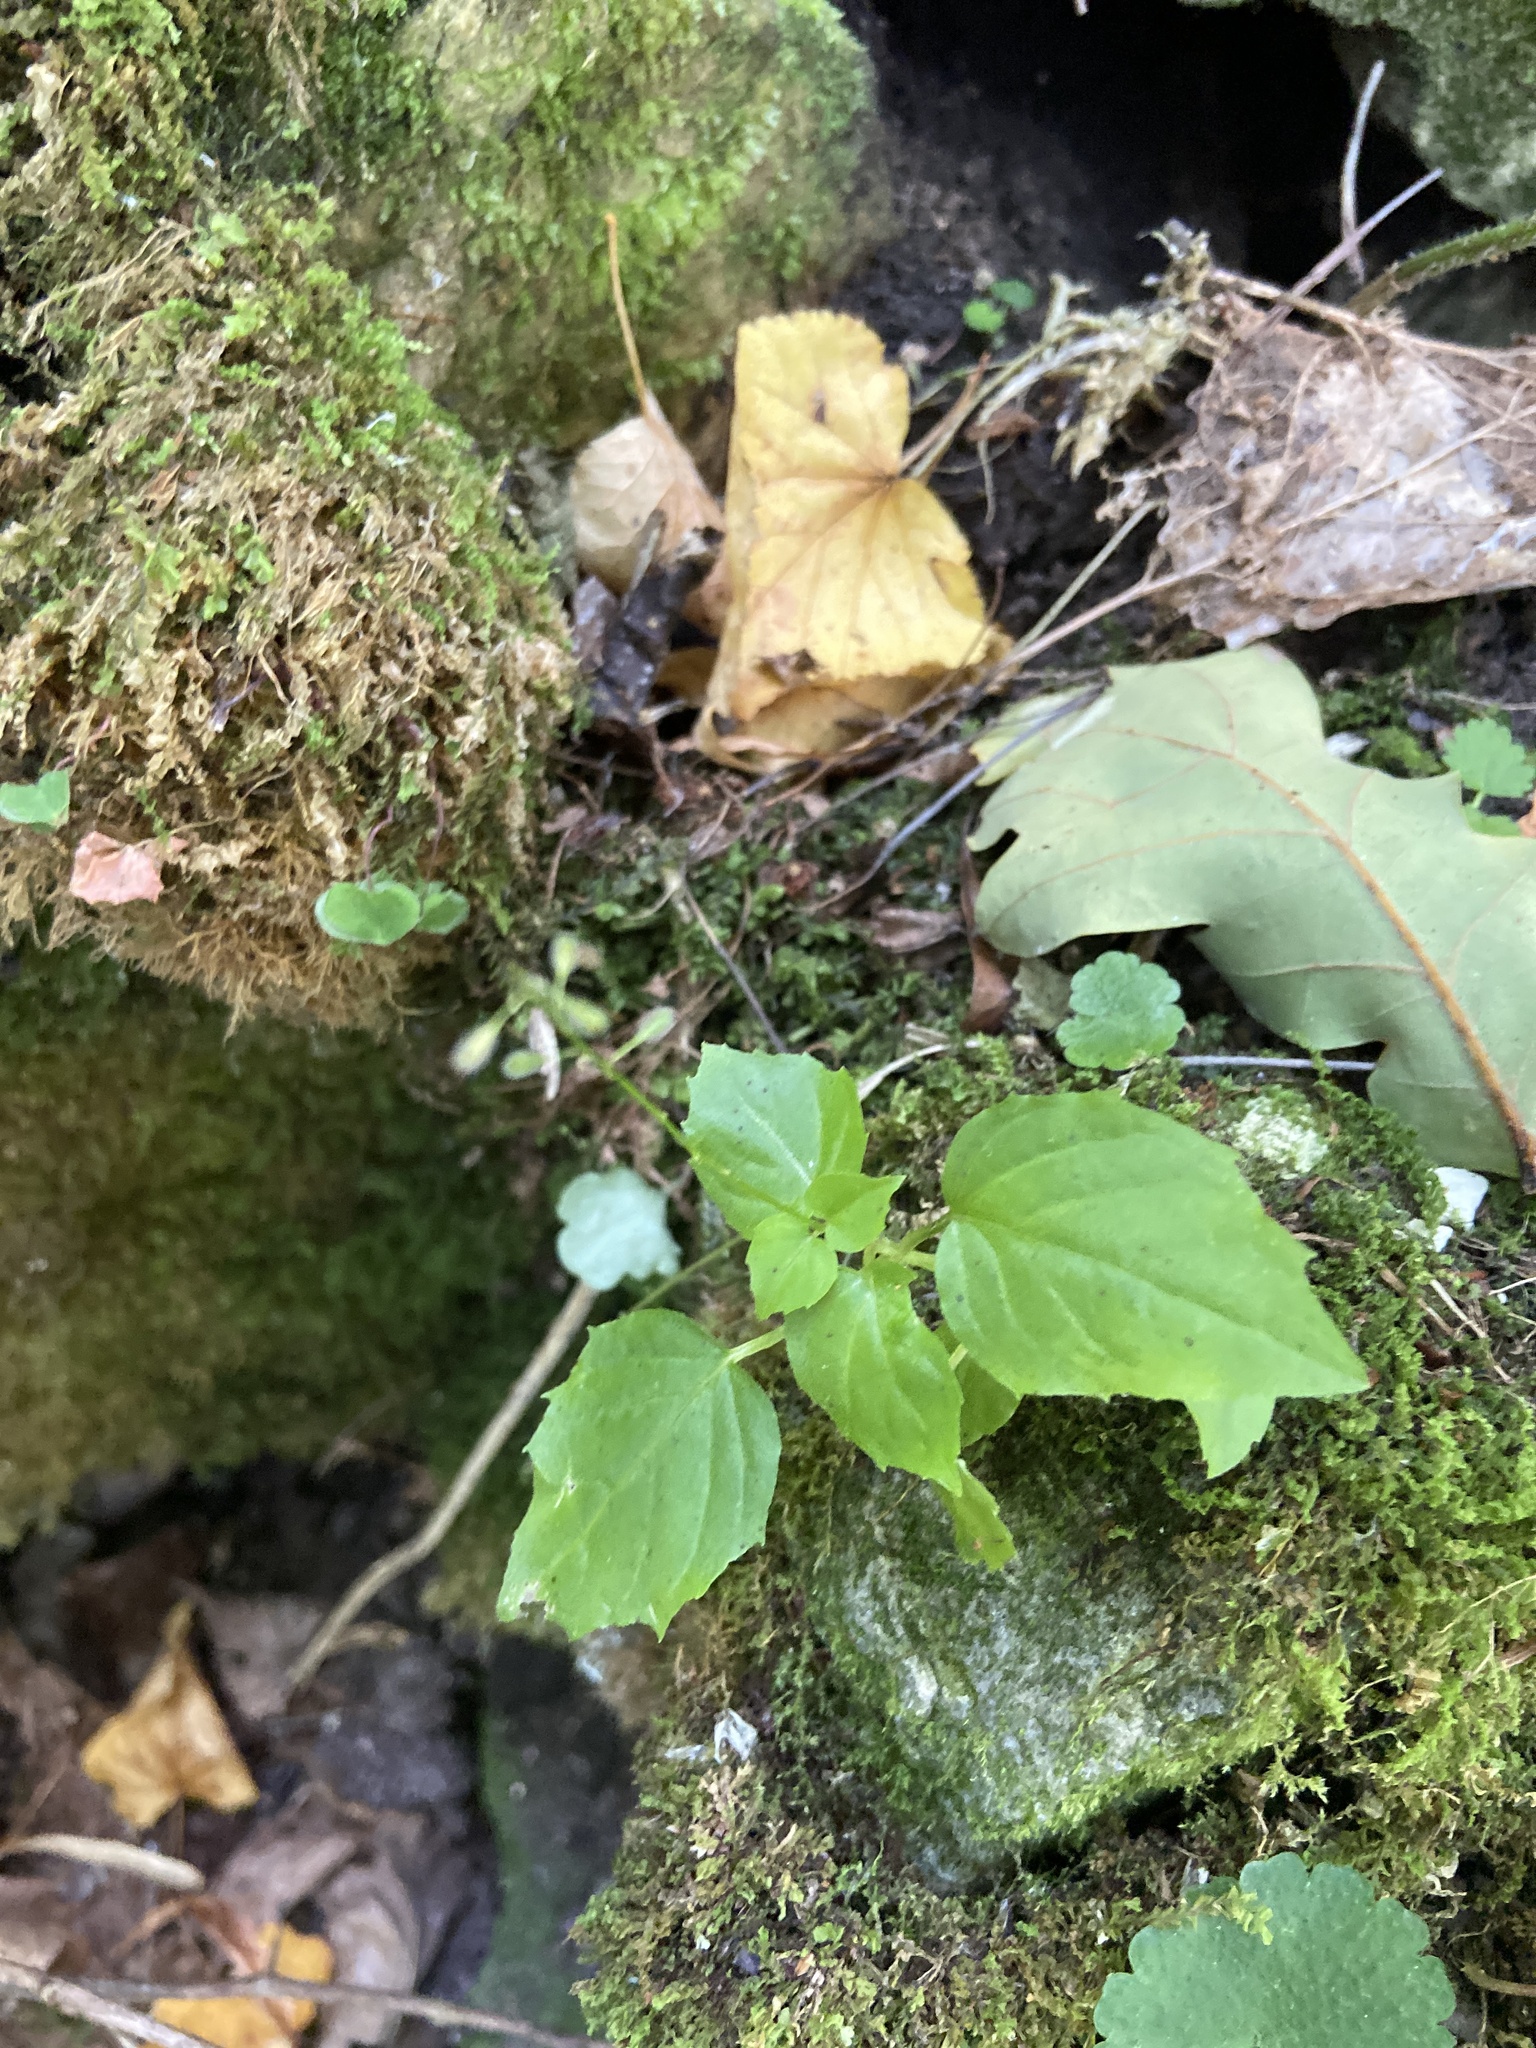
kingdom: Plantae
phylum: Tracheophyta
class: Magnoliopsida
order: Myrtales
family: Onagraceae
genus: Circaea
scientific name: Circaea alpina
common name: Alpine enchanter's-nightshade
